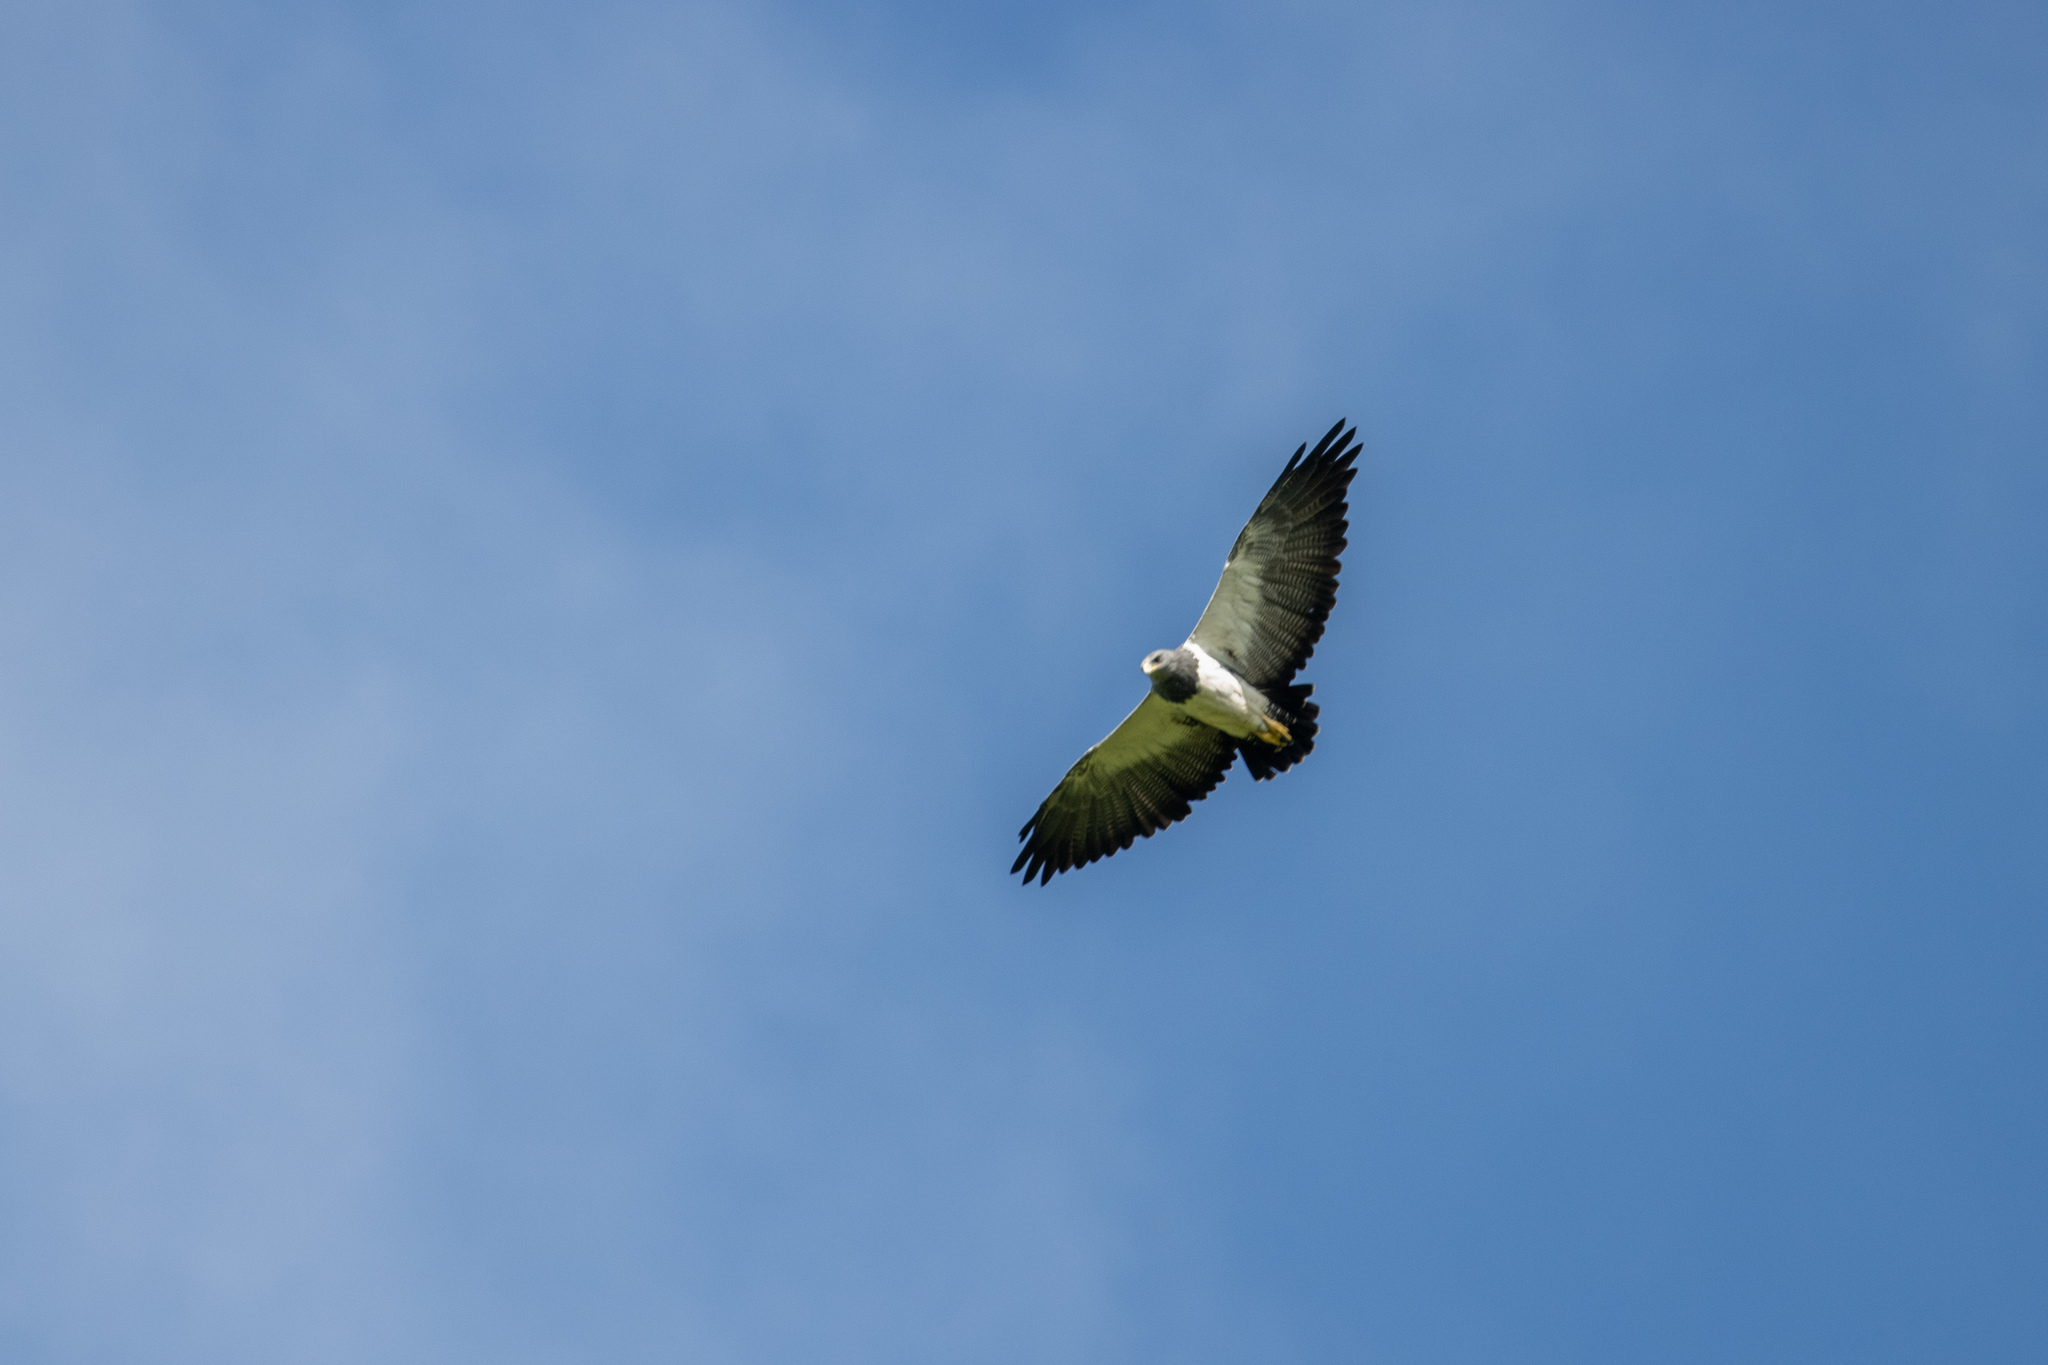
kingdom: Animalia
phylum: Chordata
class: Aves
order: Accipitriformes
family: Accipitridae
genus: Geranoaetus
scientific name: Geranoaetus melanoleucus
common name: Black-chested buzzard-eagle
